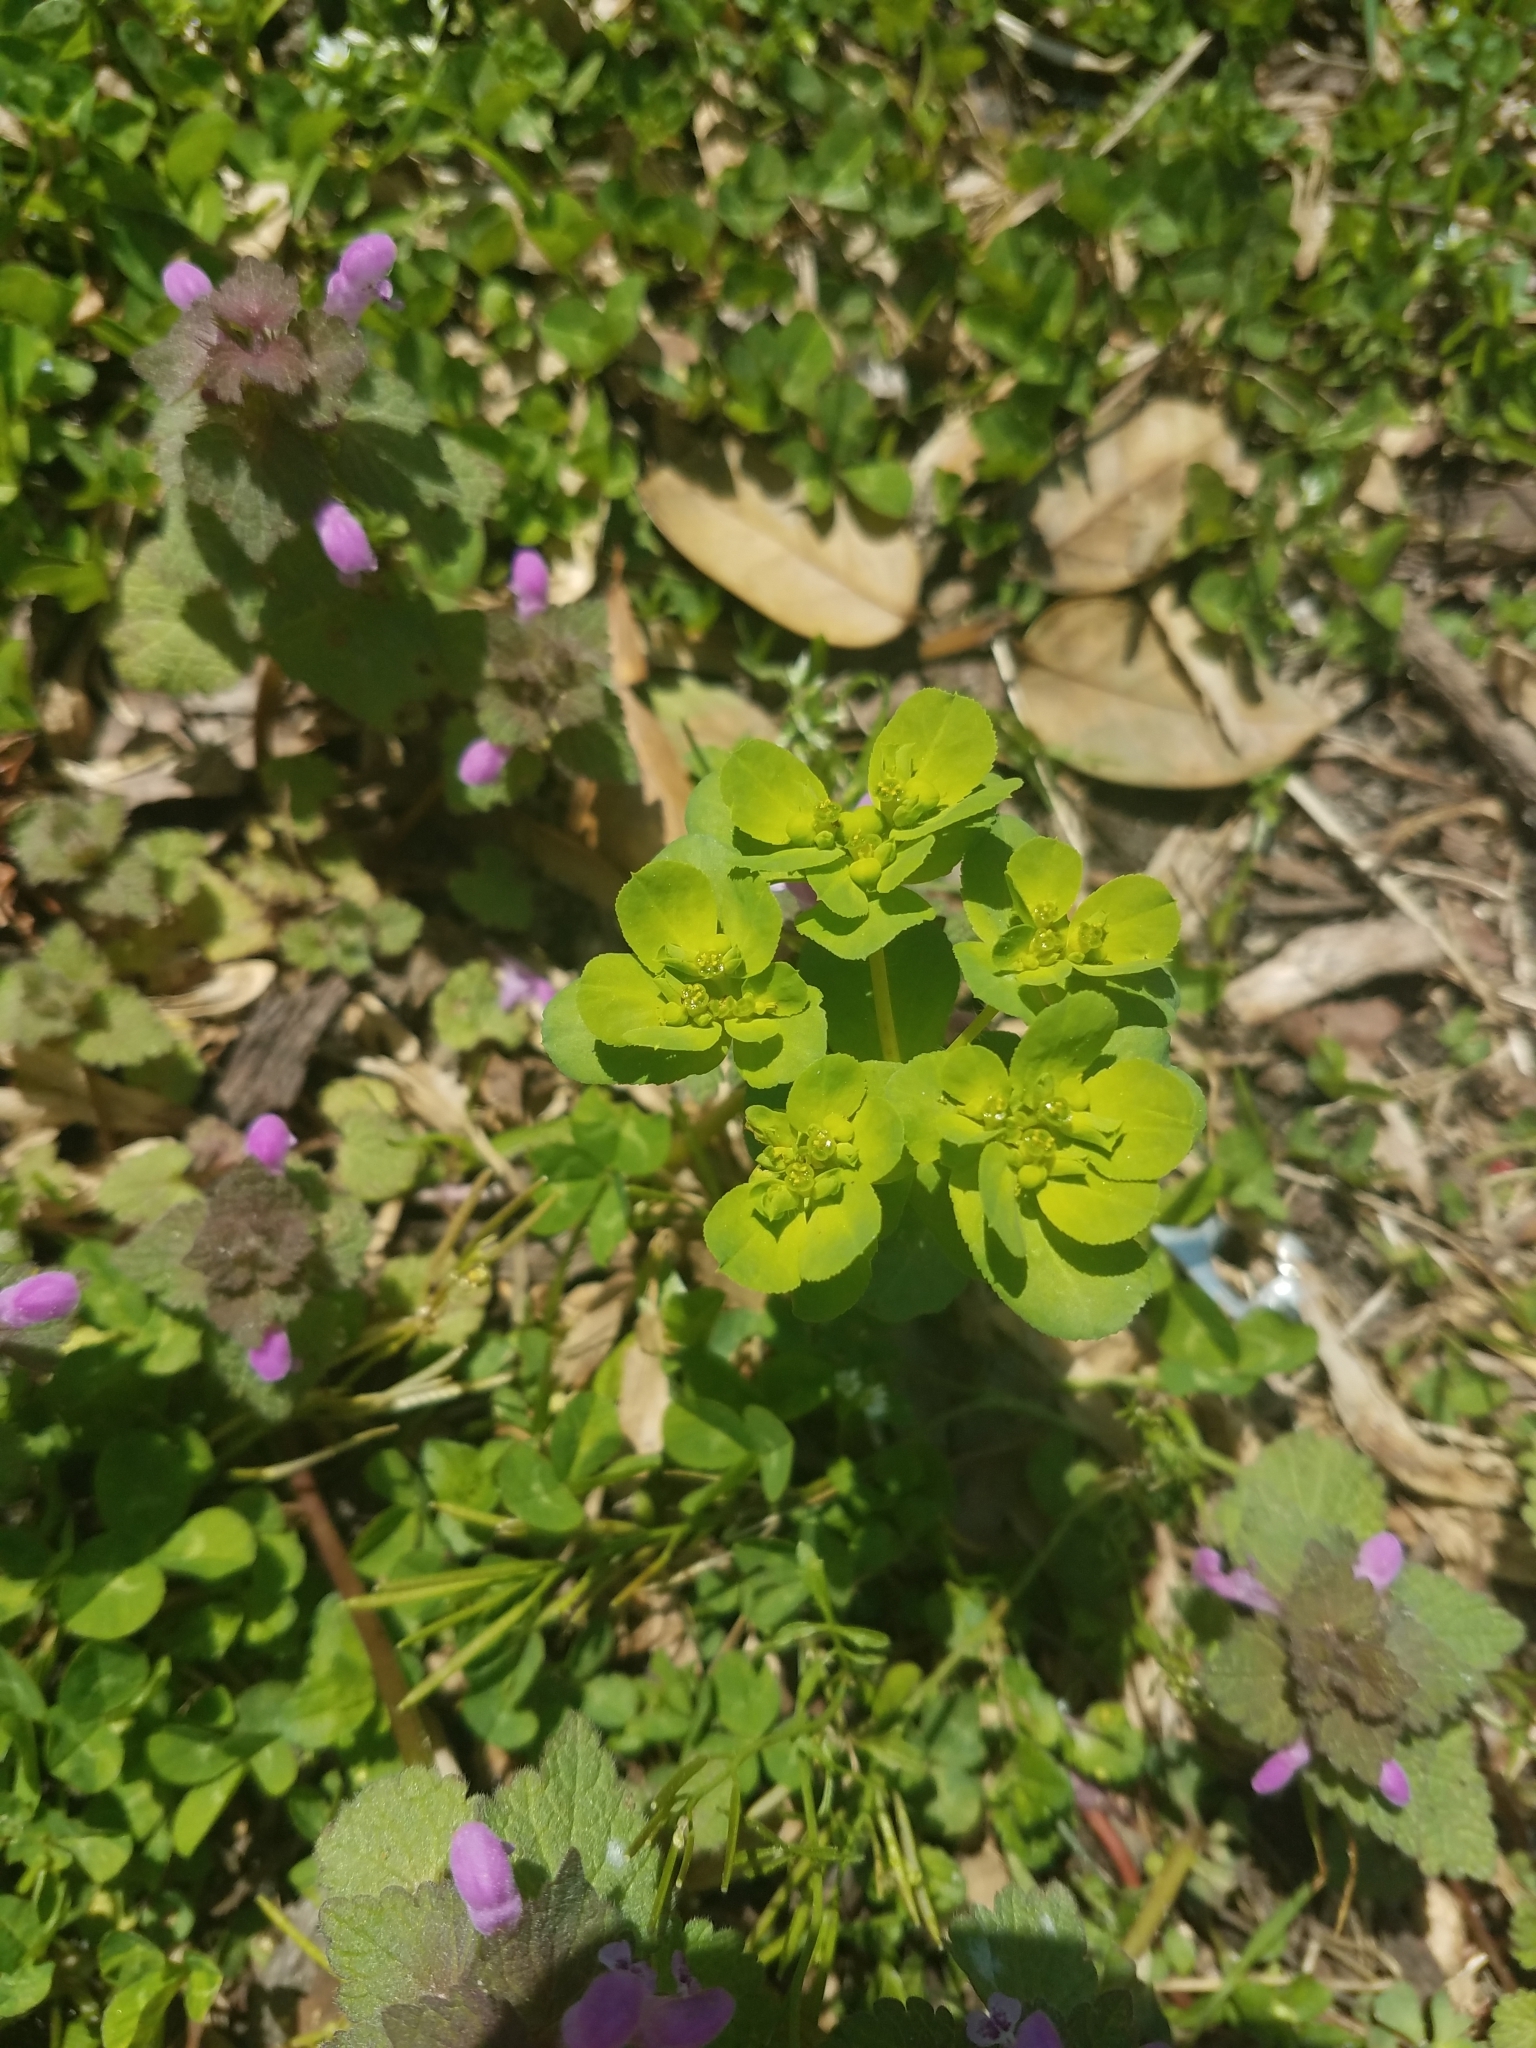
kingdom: Plantae
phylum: Tracheophyta
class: Magnoliopsida
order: Malpighiales
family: Euphorbiaceae
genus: Euphorbia
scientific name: Euphorbia helioscopia
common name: Sun spurge
